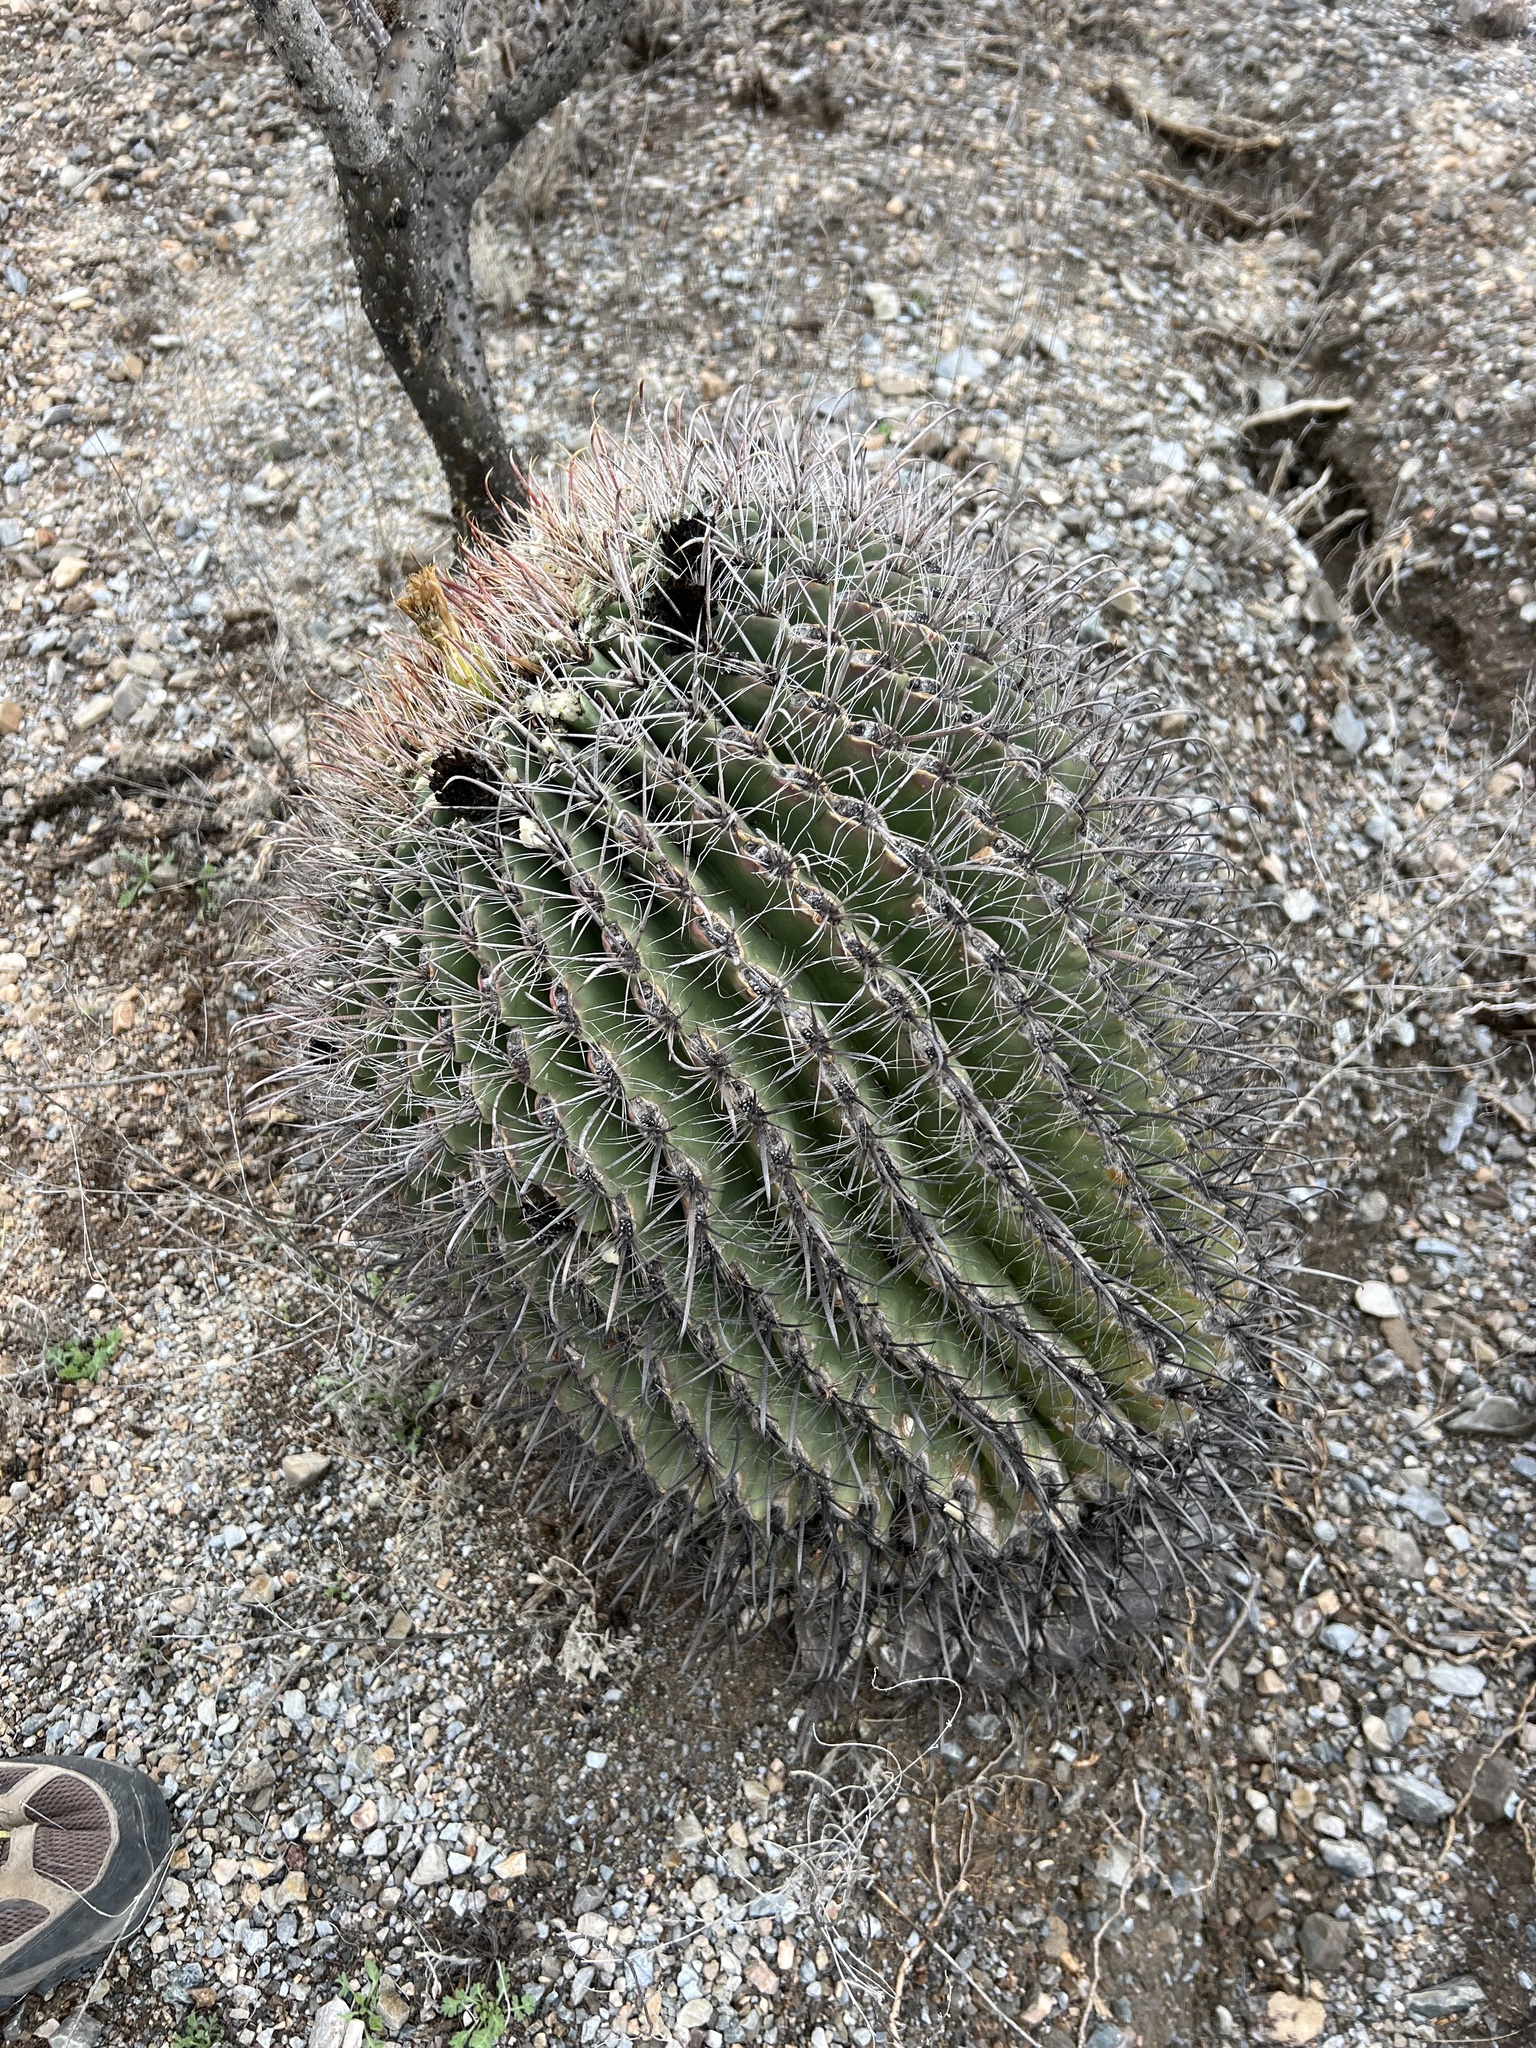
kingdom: Plantae
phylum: Tracheophyta
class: Magnoliopsida
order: Caryophyllales
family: Cactaceae
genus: Ferocactus
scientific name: Ferocactus wislizeni
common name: Candy barrel cactus
